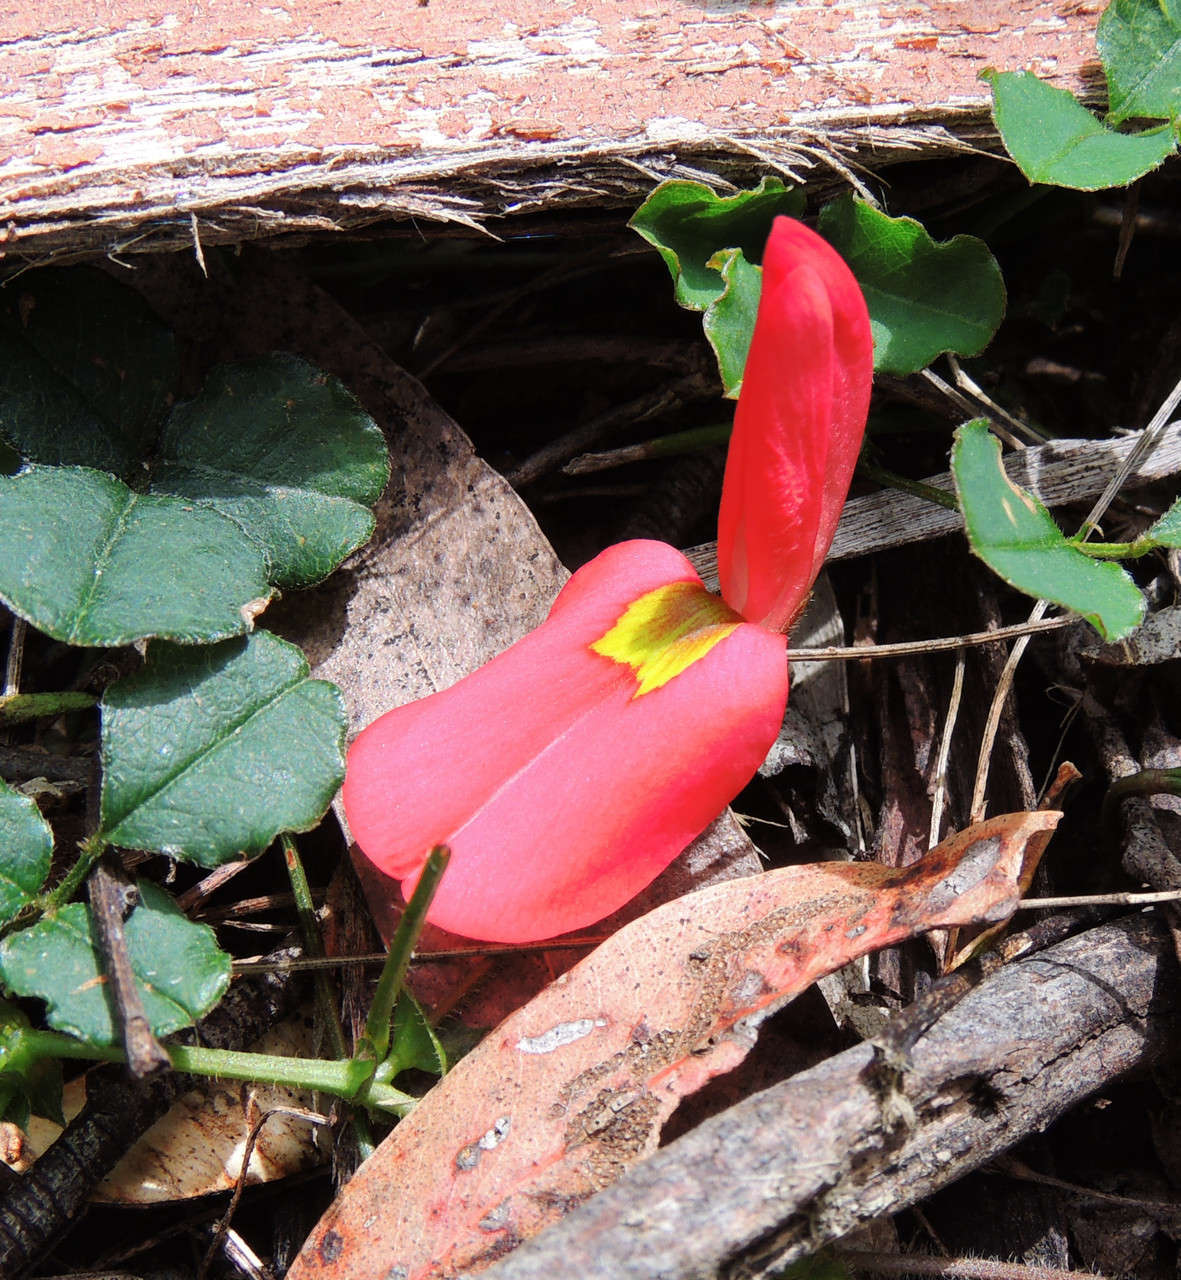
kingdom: Plantae
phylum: Tracheophyta
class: Magnoliopsida
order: Fabales
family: Fabaceae
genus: Kennedia
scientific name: Kennedia prostrata
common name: Running-postman
